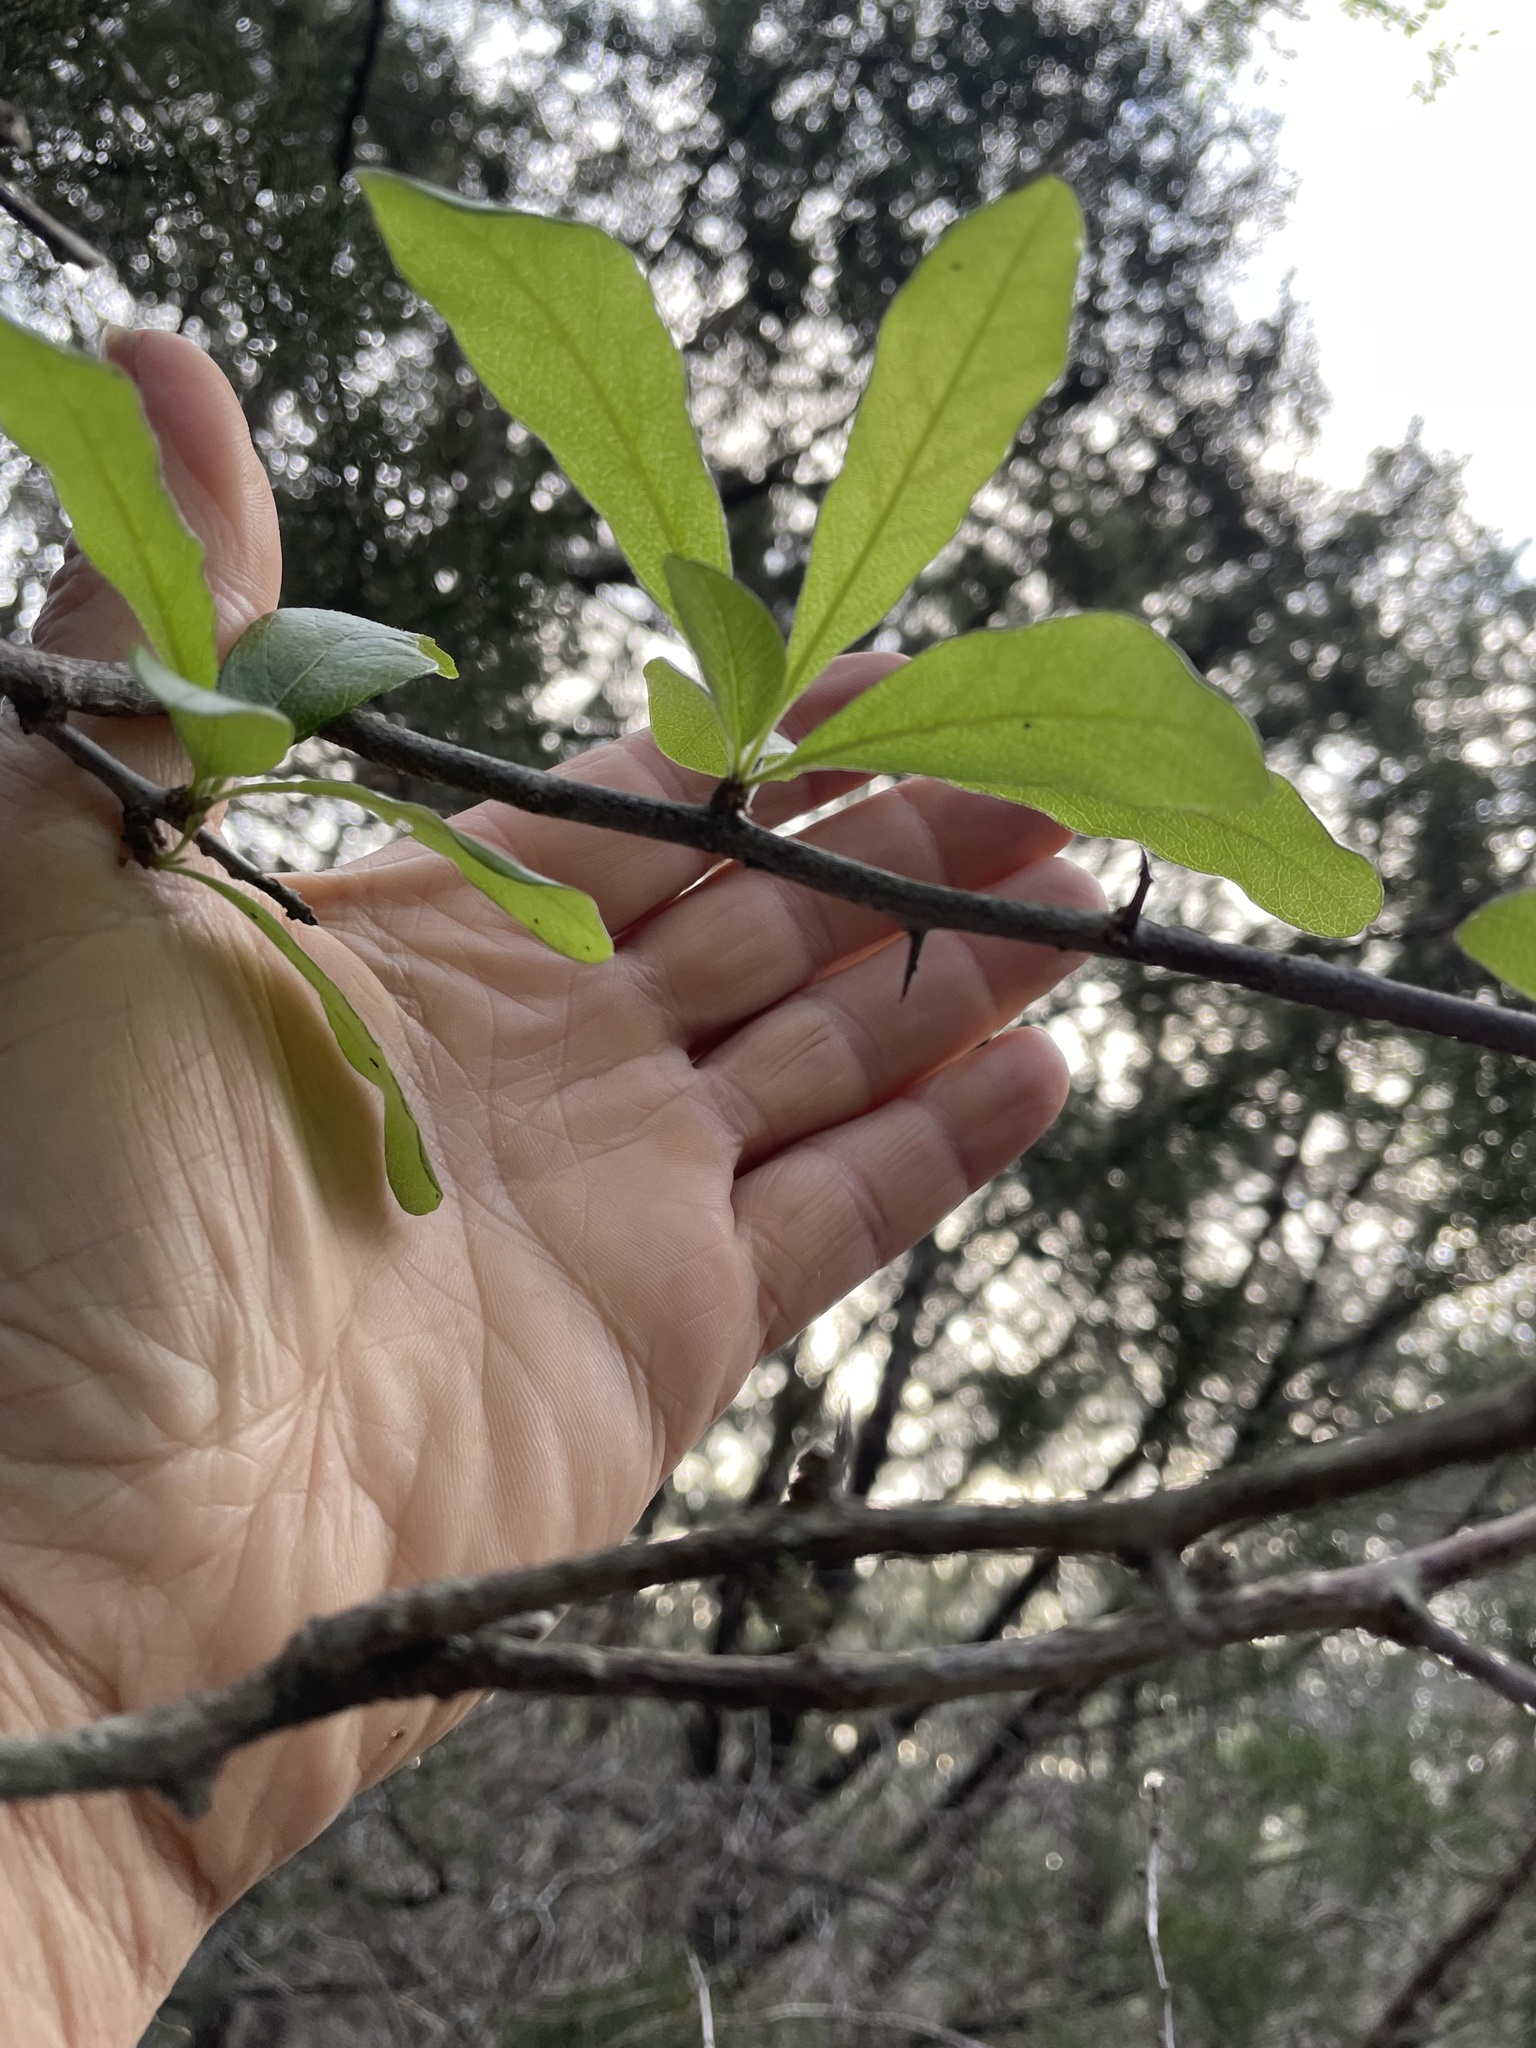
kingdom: Plantae
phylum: Tracheophyta
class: Magnoliopsida
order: Ericales
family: Sapotaceae
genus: Sideroxylon
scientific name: Sideroxylon lanuginosum
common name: Chittamwood
